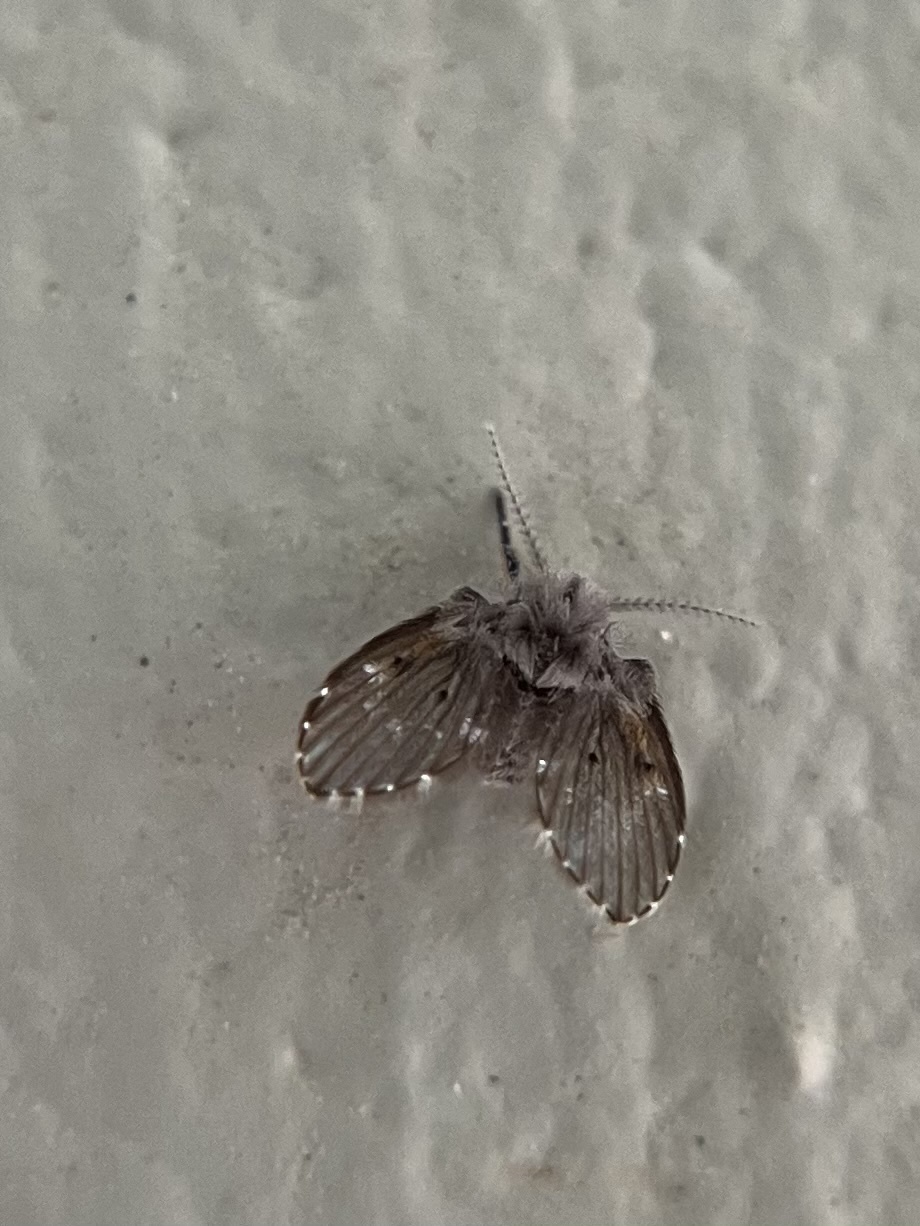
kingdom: Animalia
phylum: Arthropoda
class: Insecta
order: Diptera
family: Psychodidae
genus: Clogmia
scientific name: Clogmia albipunctatus
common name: White-spotted moth fly
